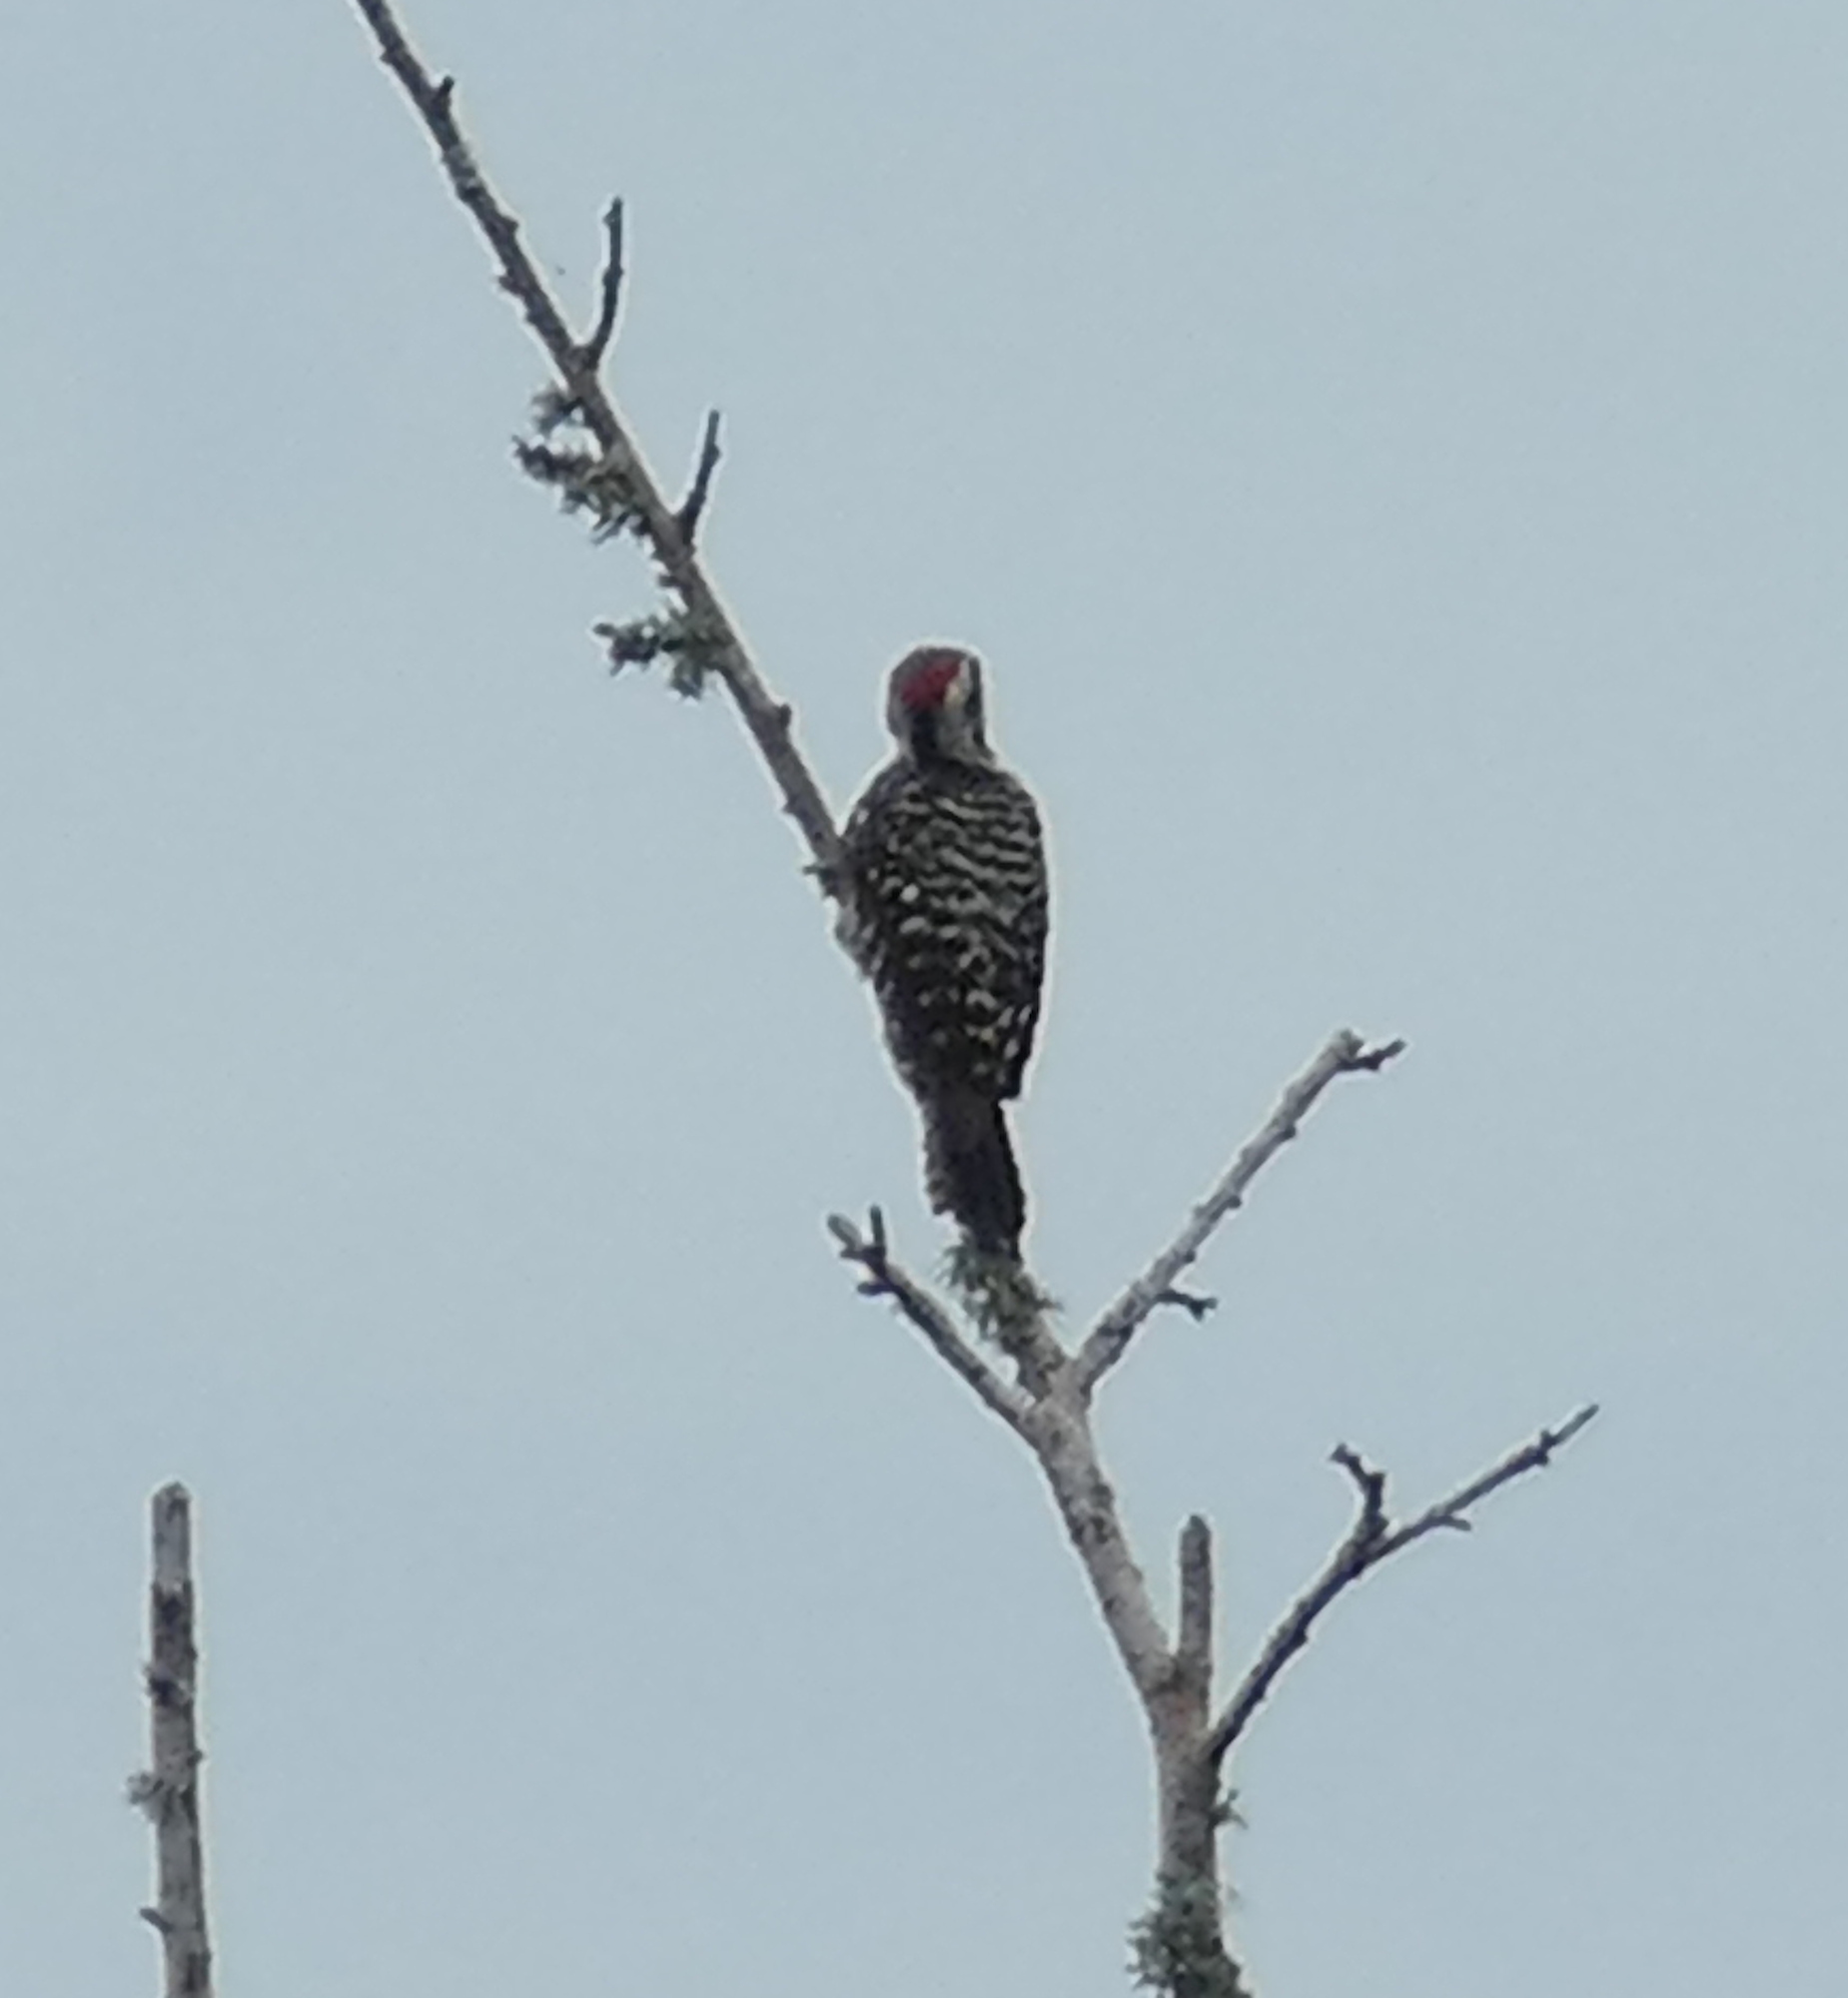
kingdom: Animalia
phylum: Chordata
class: Aves
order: Piciformes
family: Picidae
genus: Dryobates
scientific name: Dryobates scalaris
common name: Ladder-backed woodpecker
